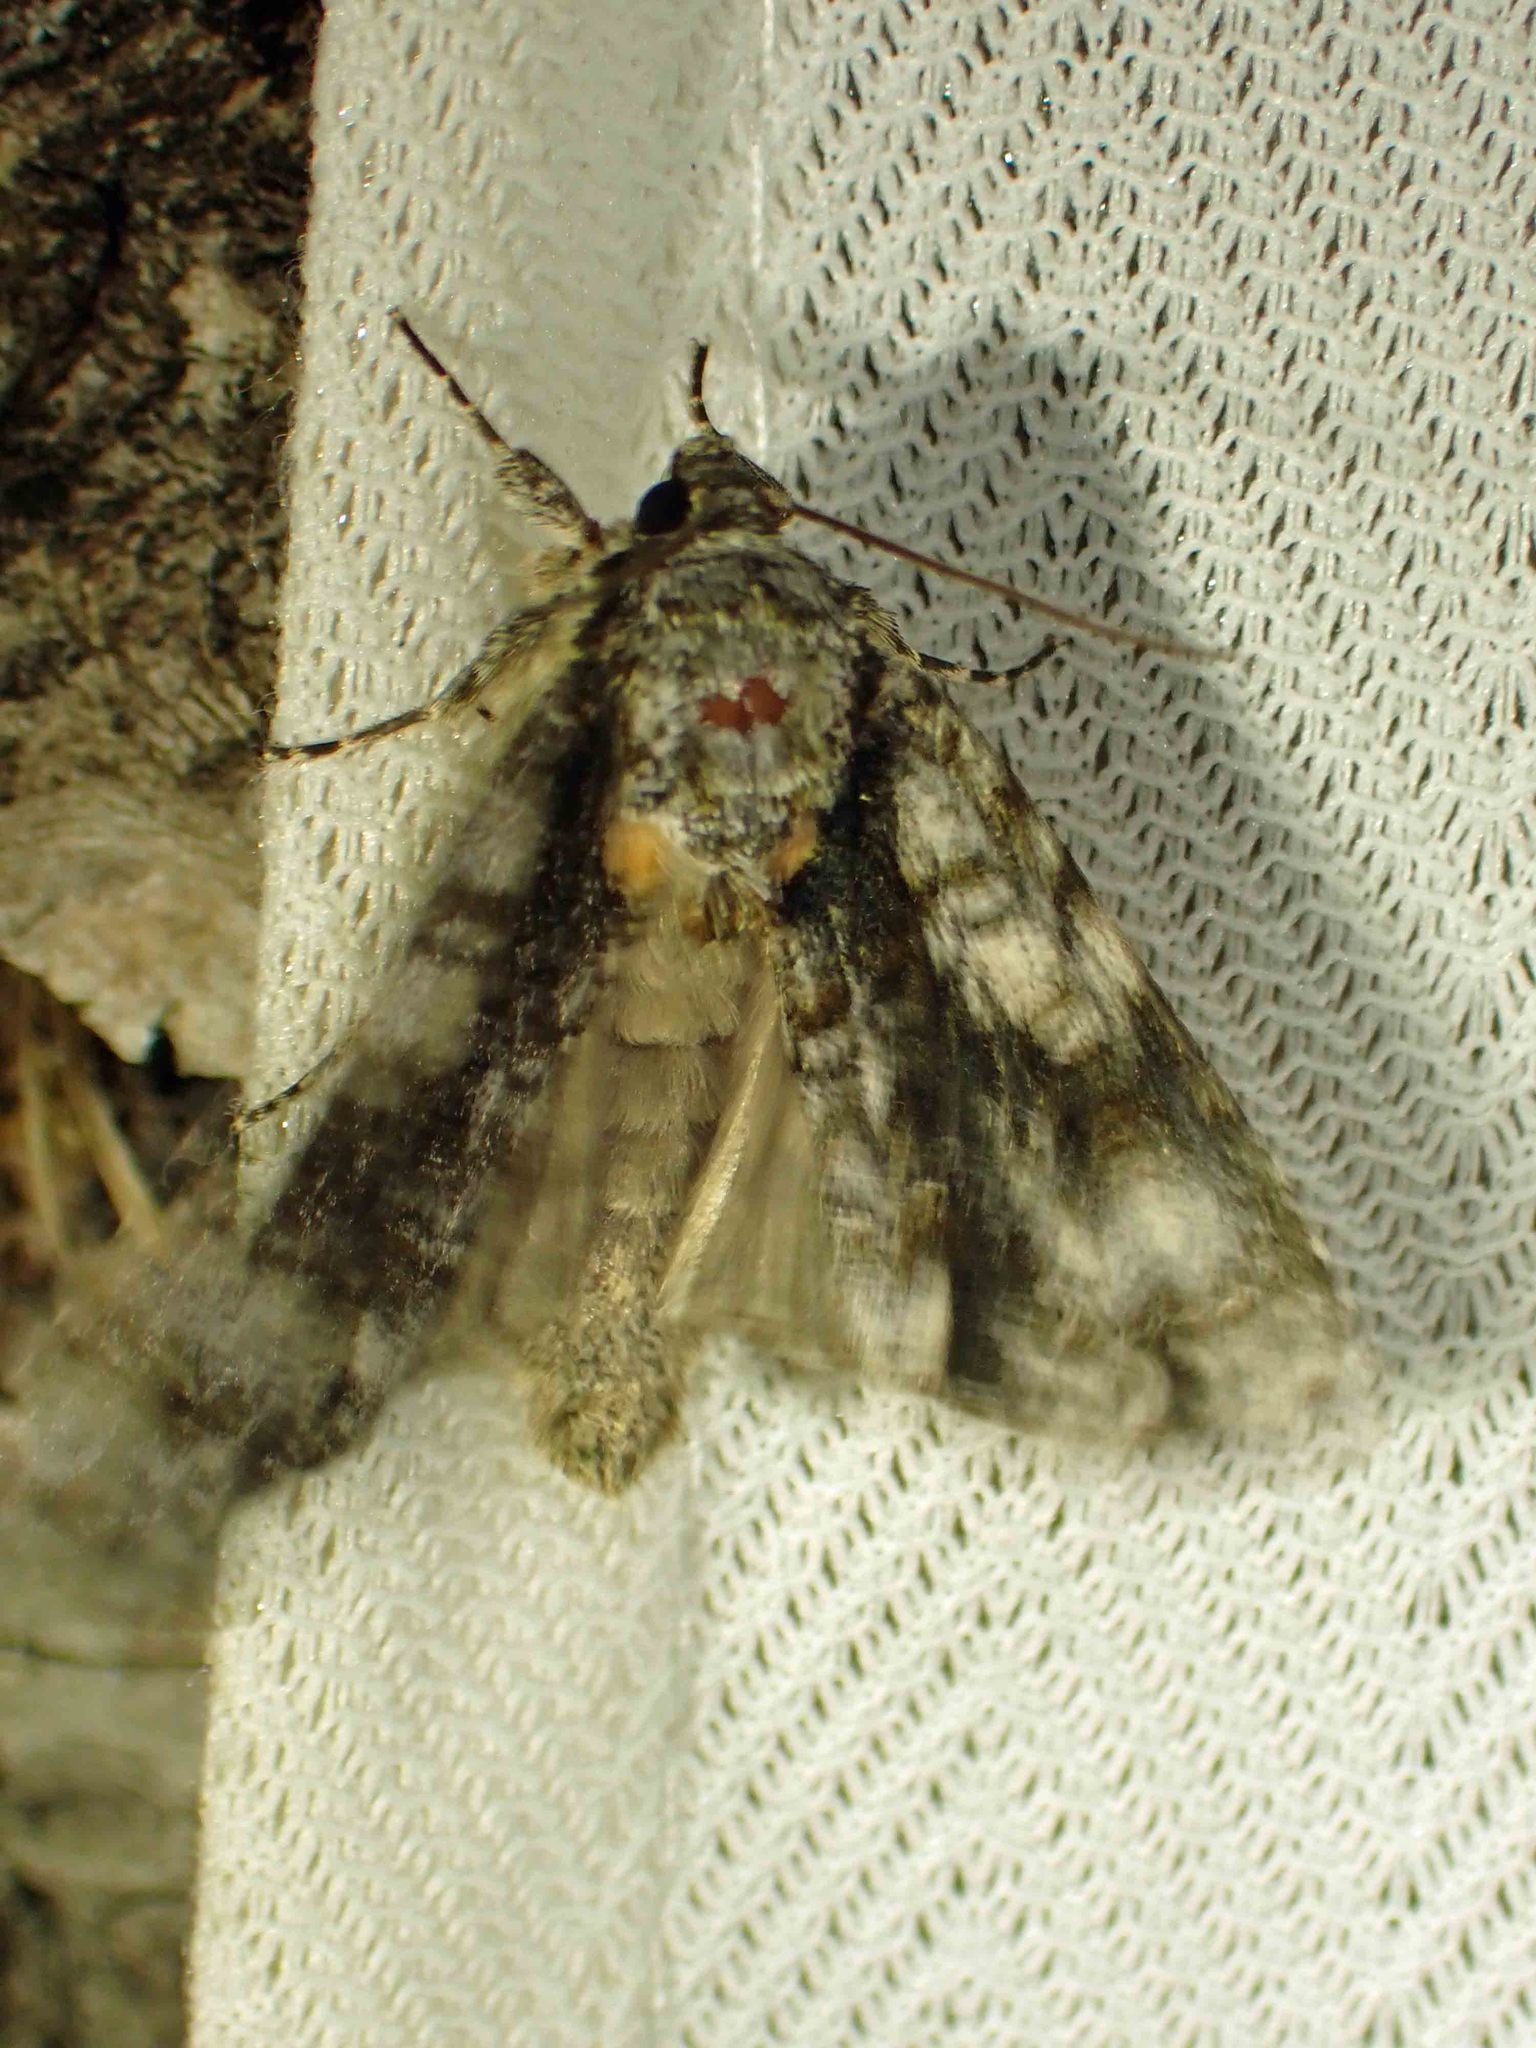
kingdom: Animalia
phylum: Arthropoda
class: Insecta
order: Lepidoptera
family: Noctuidae
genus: Acronicta
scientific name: Acronicta superans
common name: Splendid dagger
